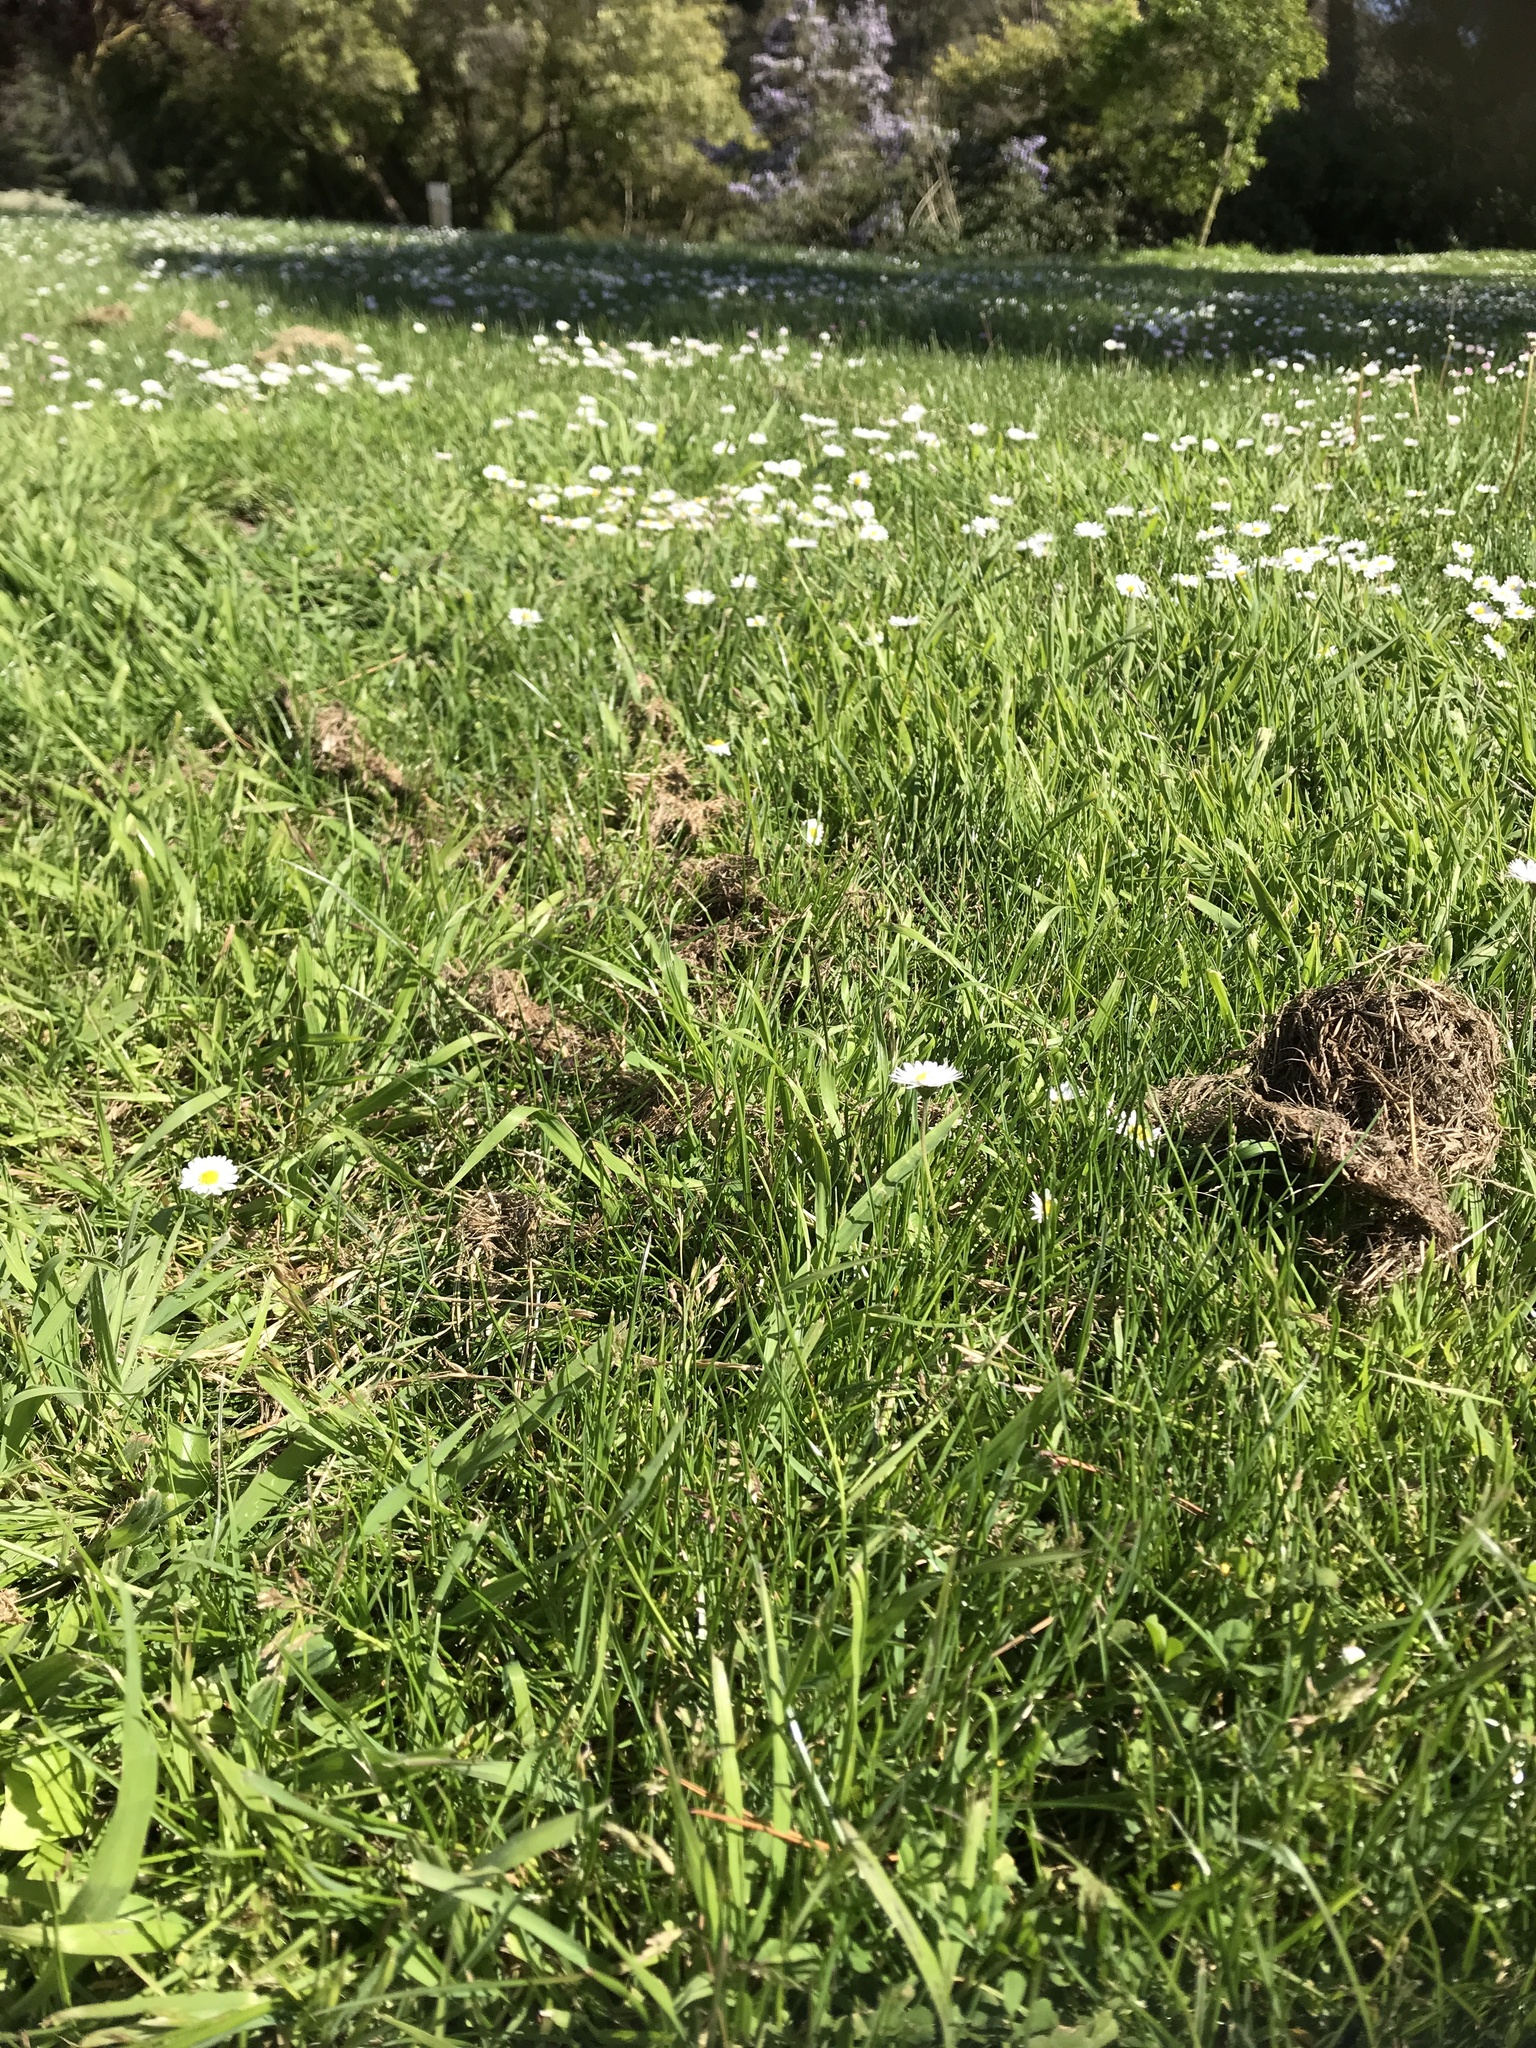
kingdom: Plantae
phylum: Tracheophyta
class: Magnoliopsida
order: Asterales
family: Asteraceae
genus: Bellis
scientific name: Bellis perennis
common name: Lawndaisy
